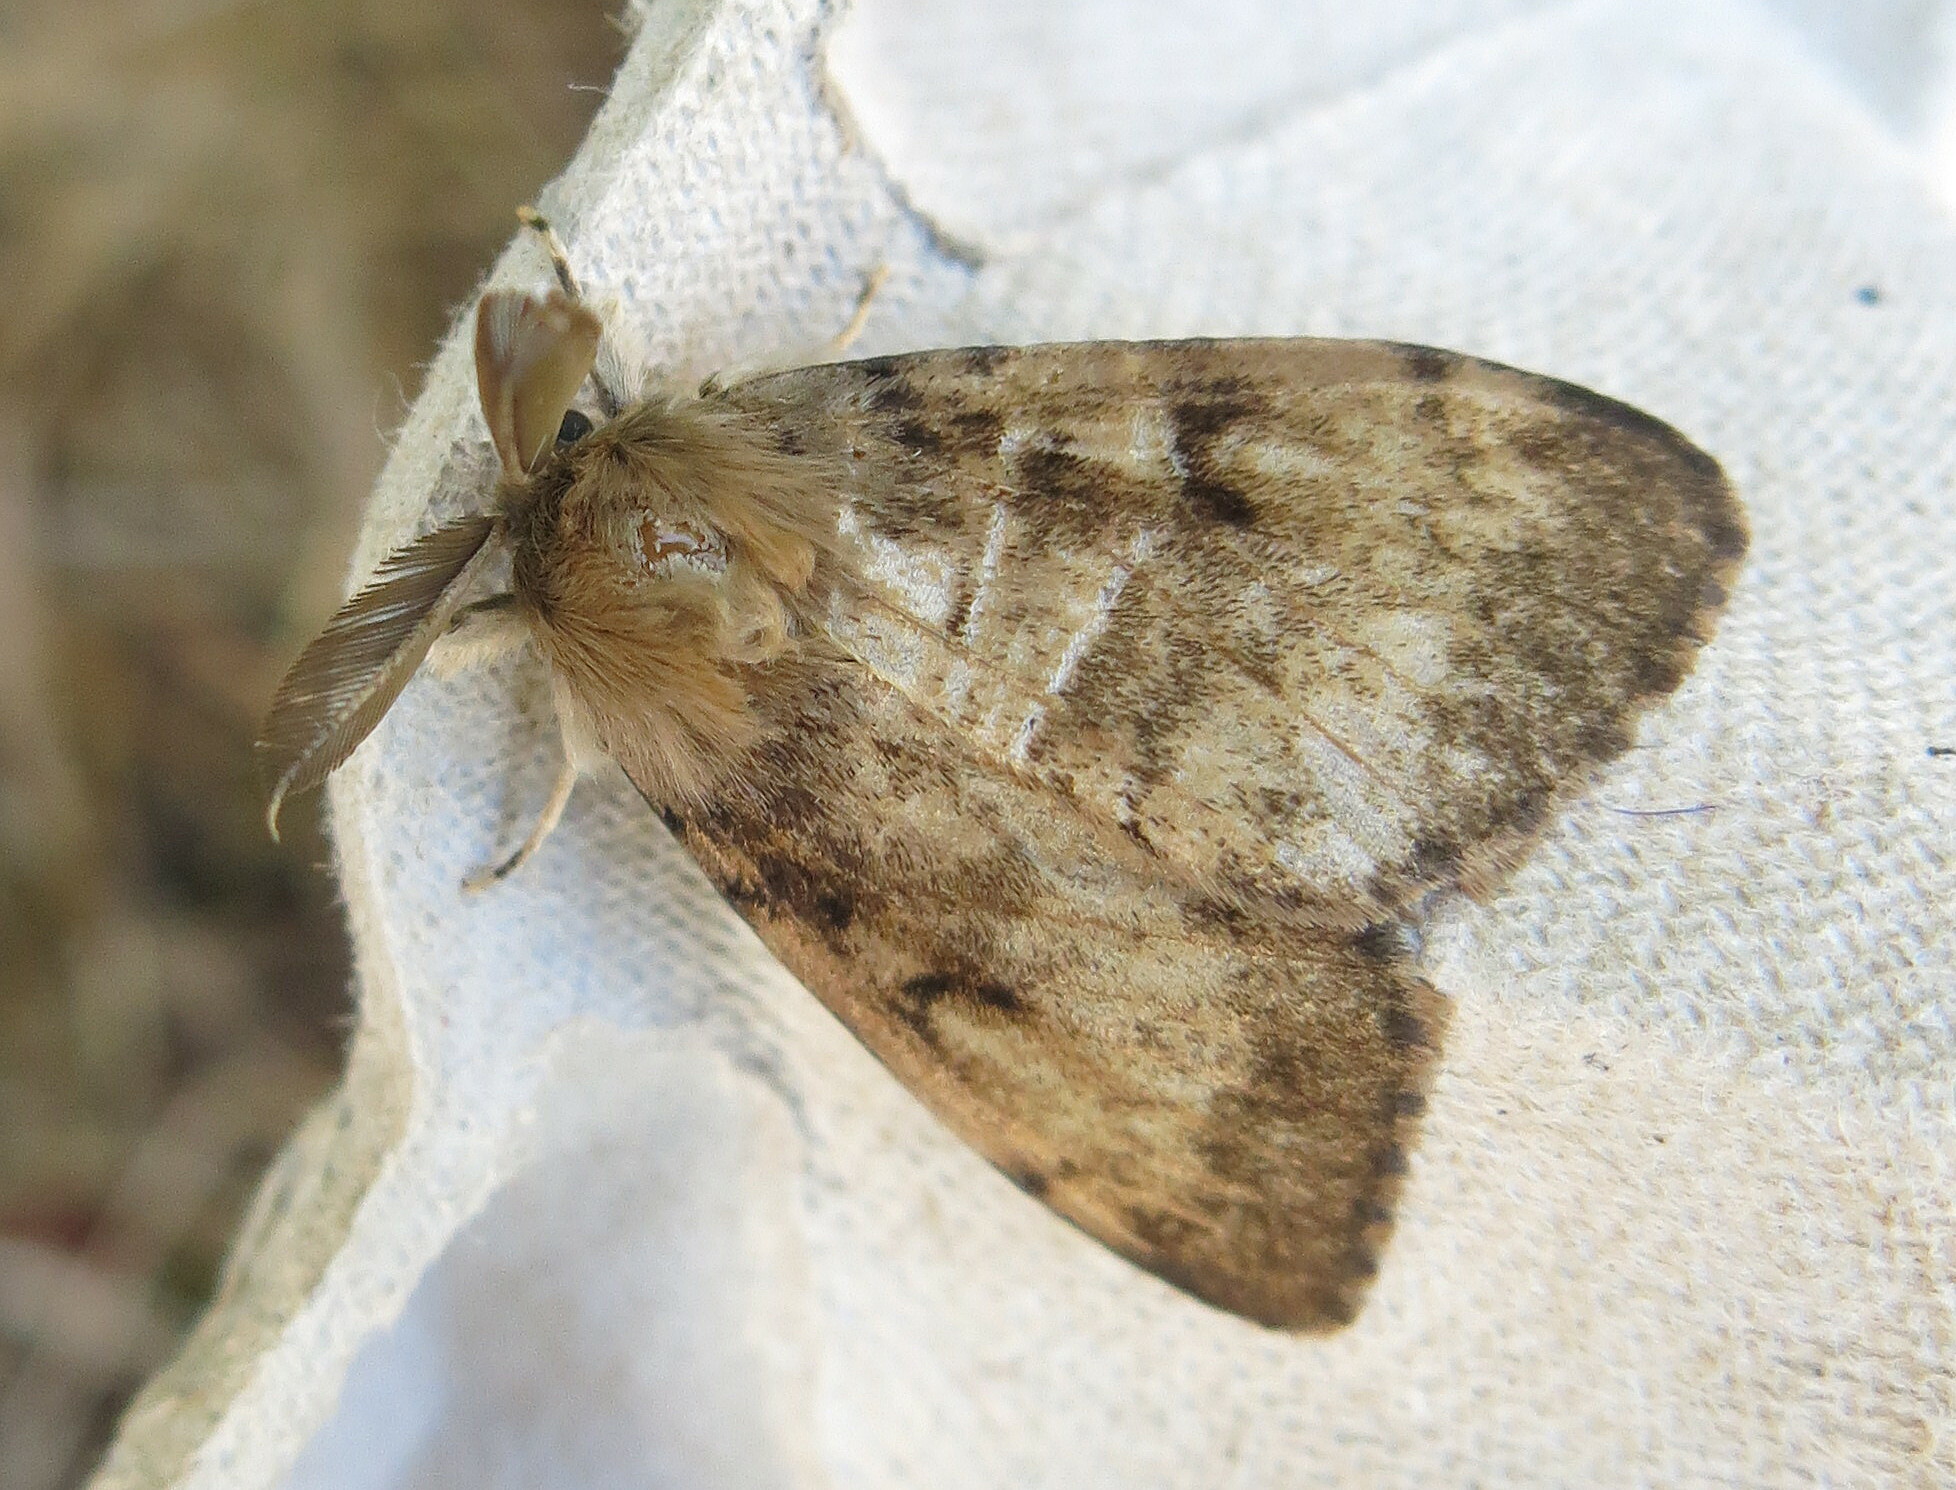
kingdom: Animalia
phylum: Arthropoda
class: Insecta
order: Lepidoptera
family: Erebidae
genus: Lymantria
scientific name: Lymantria dispar
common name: Gypsy moth
